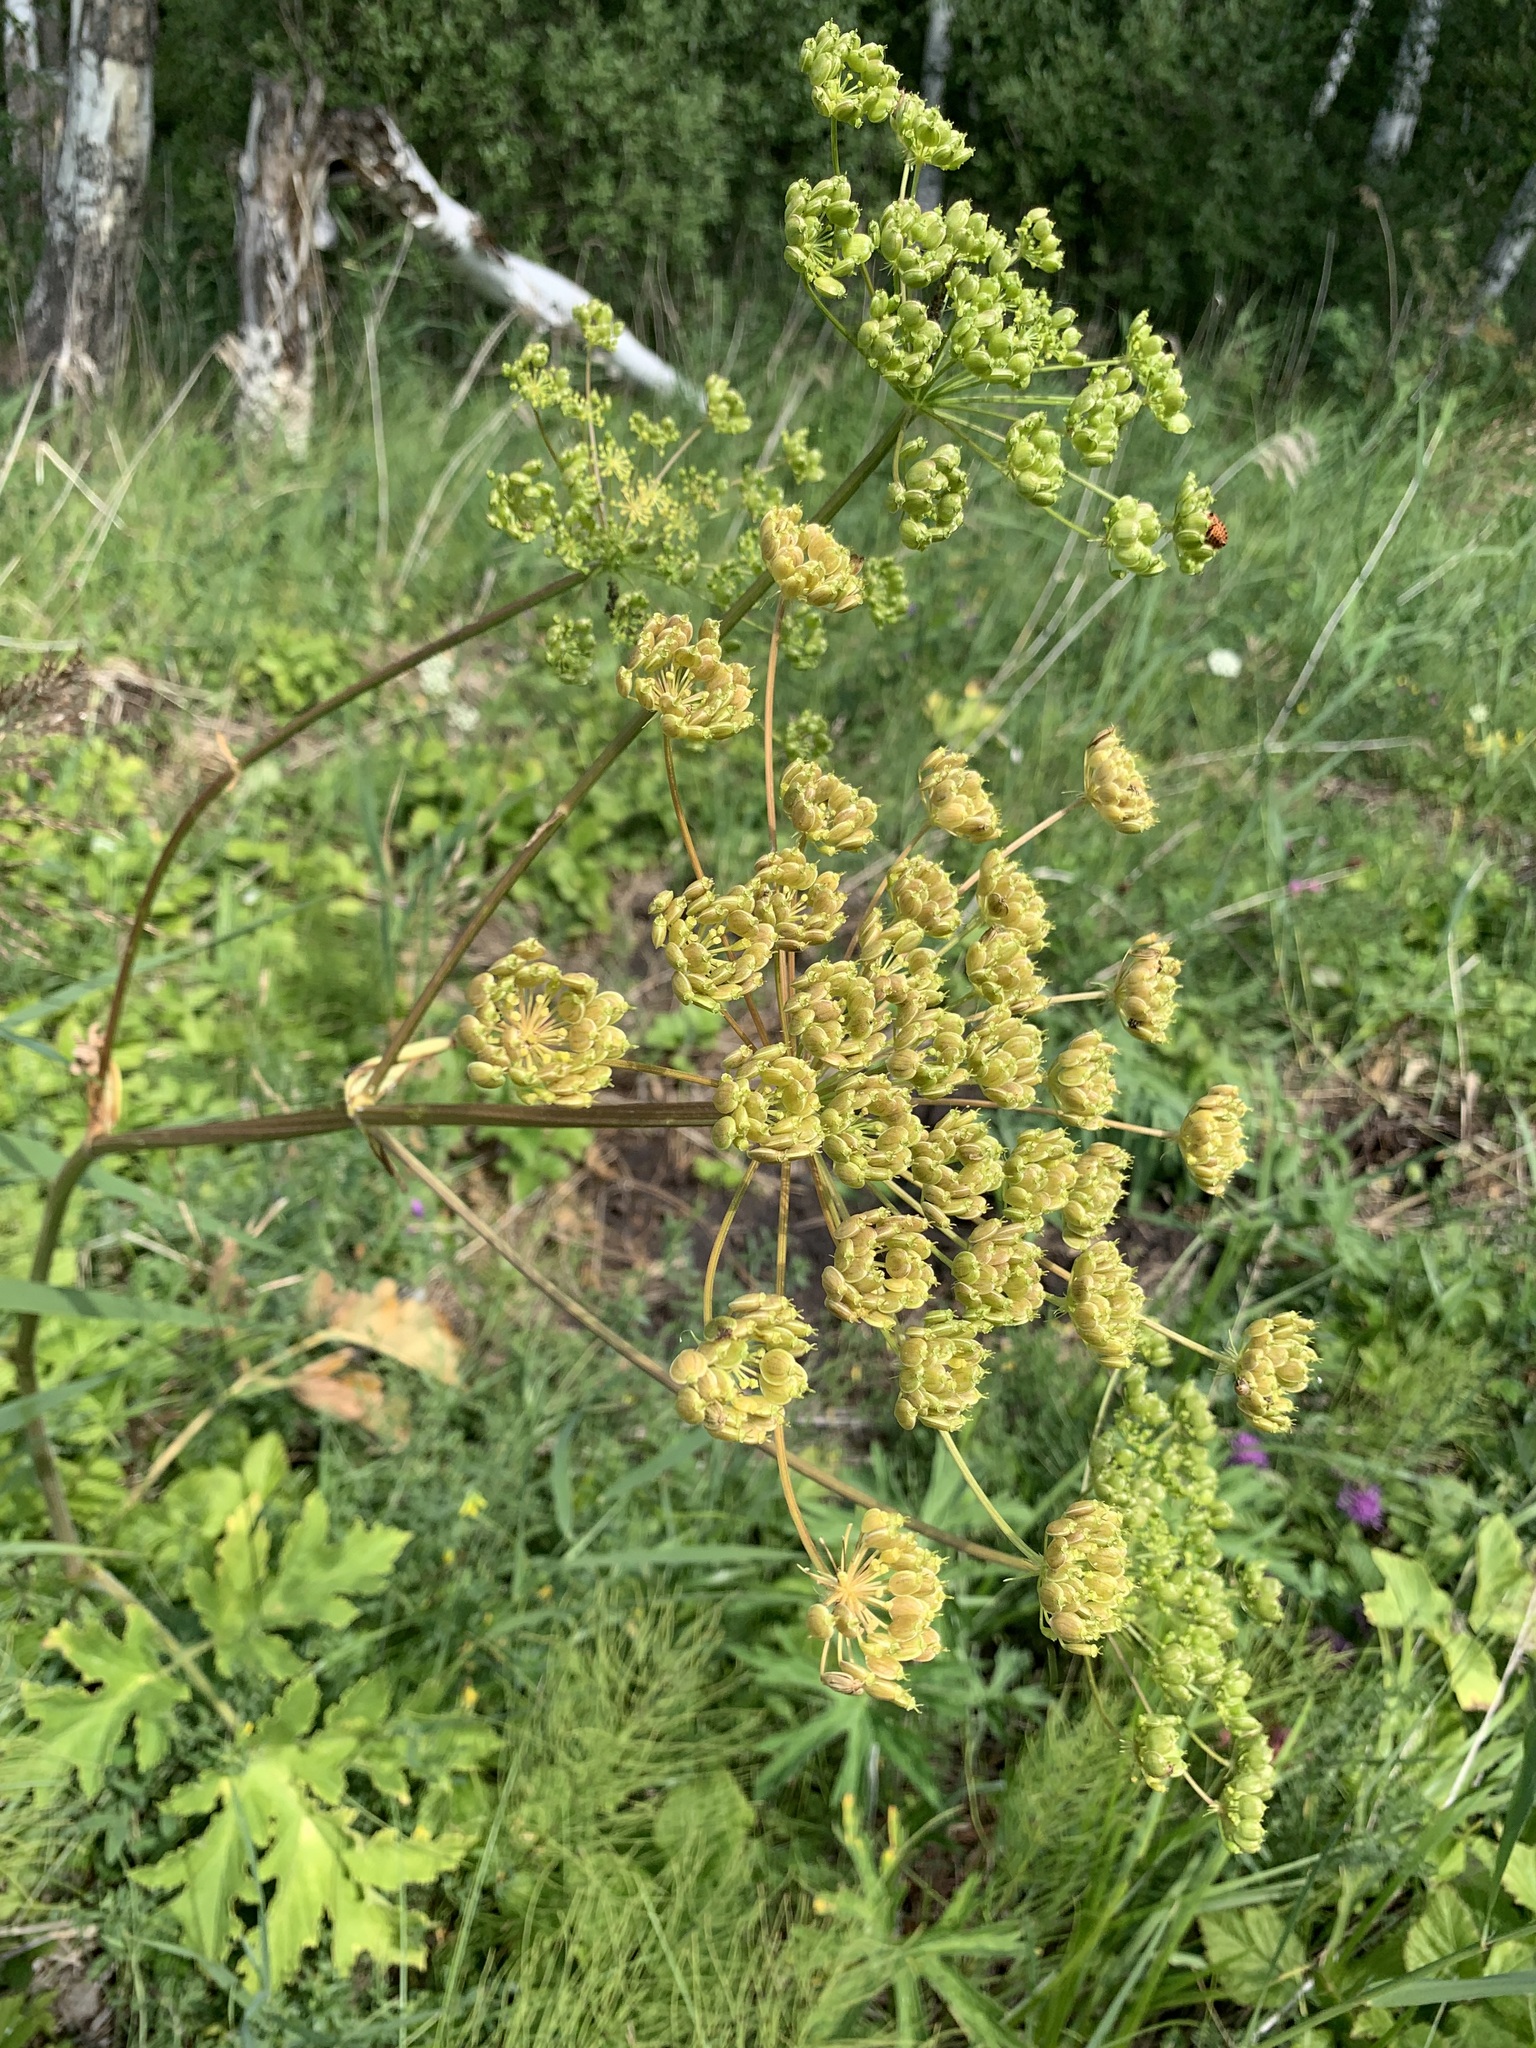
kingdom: Plantae
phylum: Tracheophyta
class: Magnoliopsida
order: Apiales
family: Apiaceae
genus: Heracleum
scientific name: Heracleum sphondylium
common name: Hogweed
